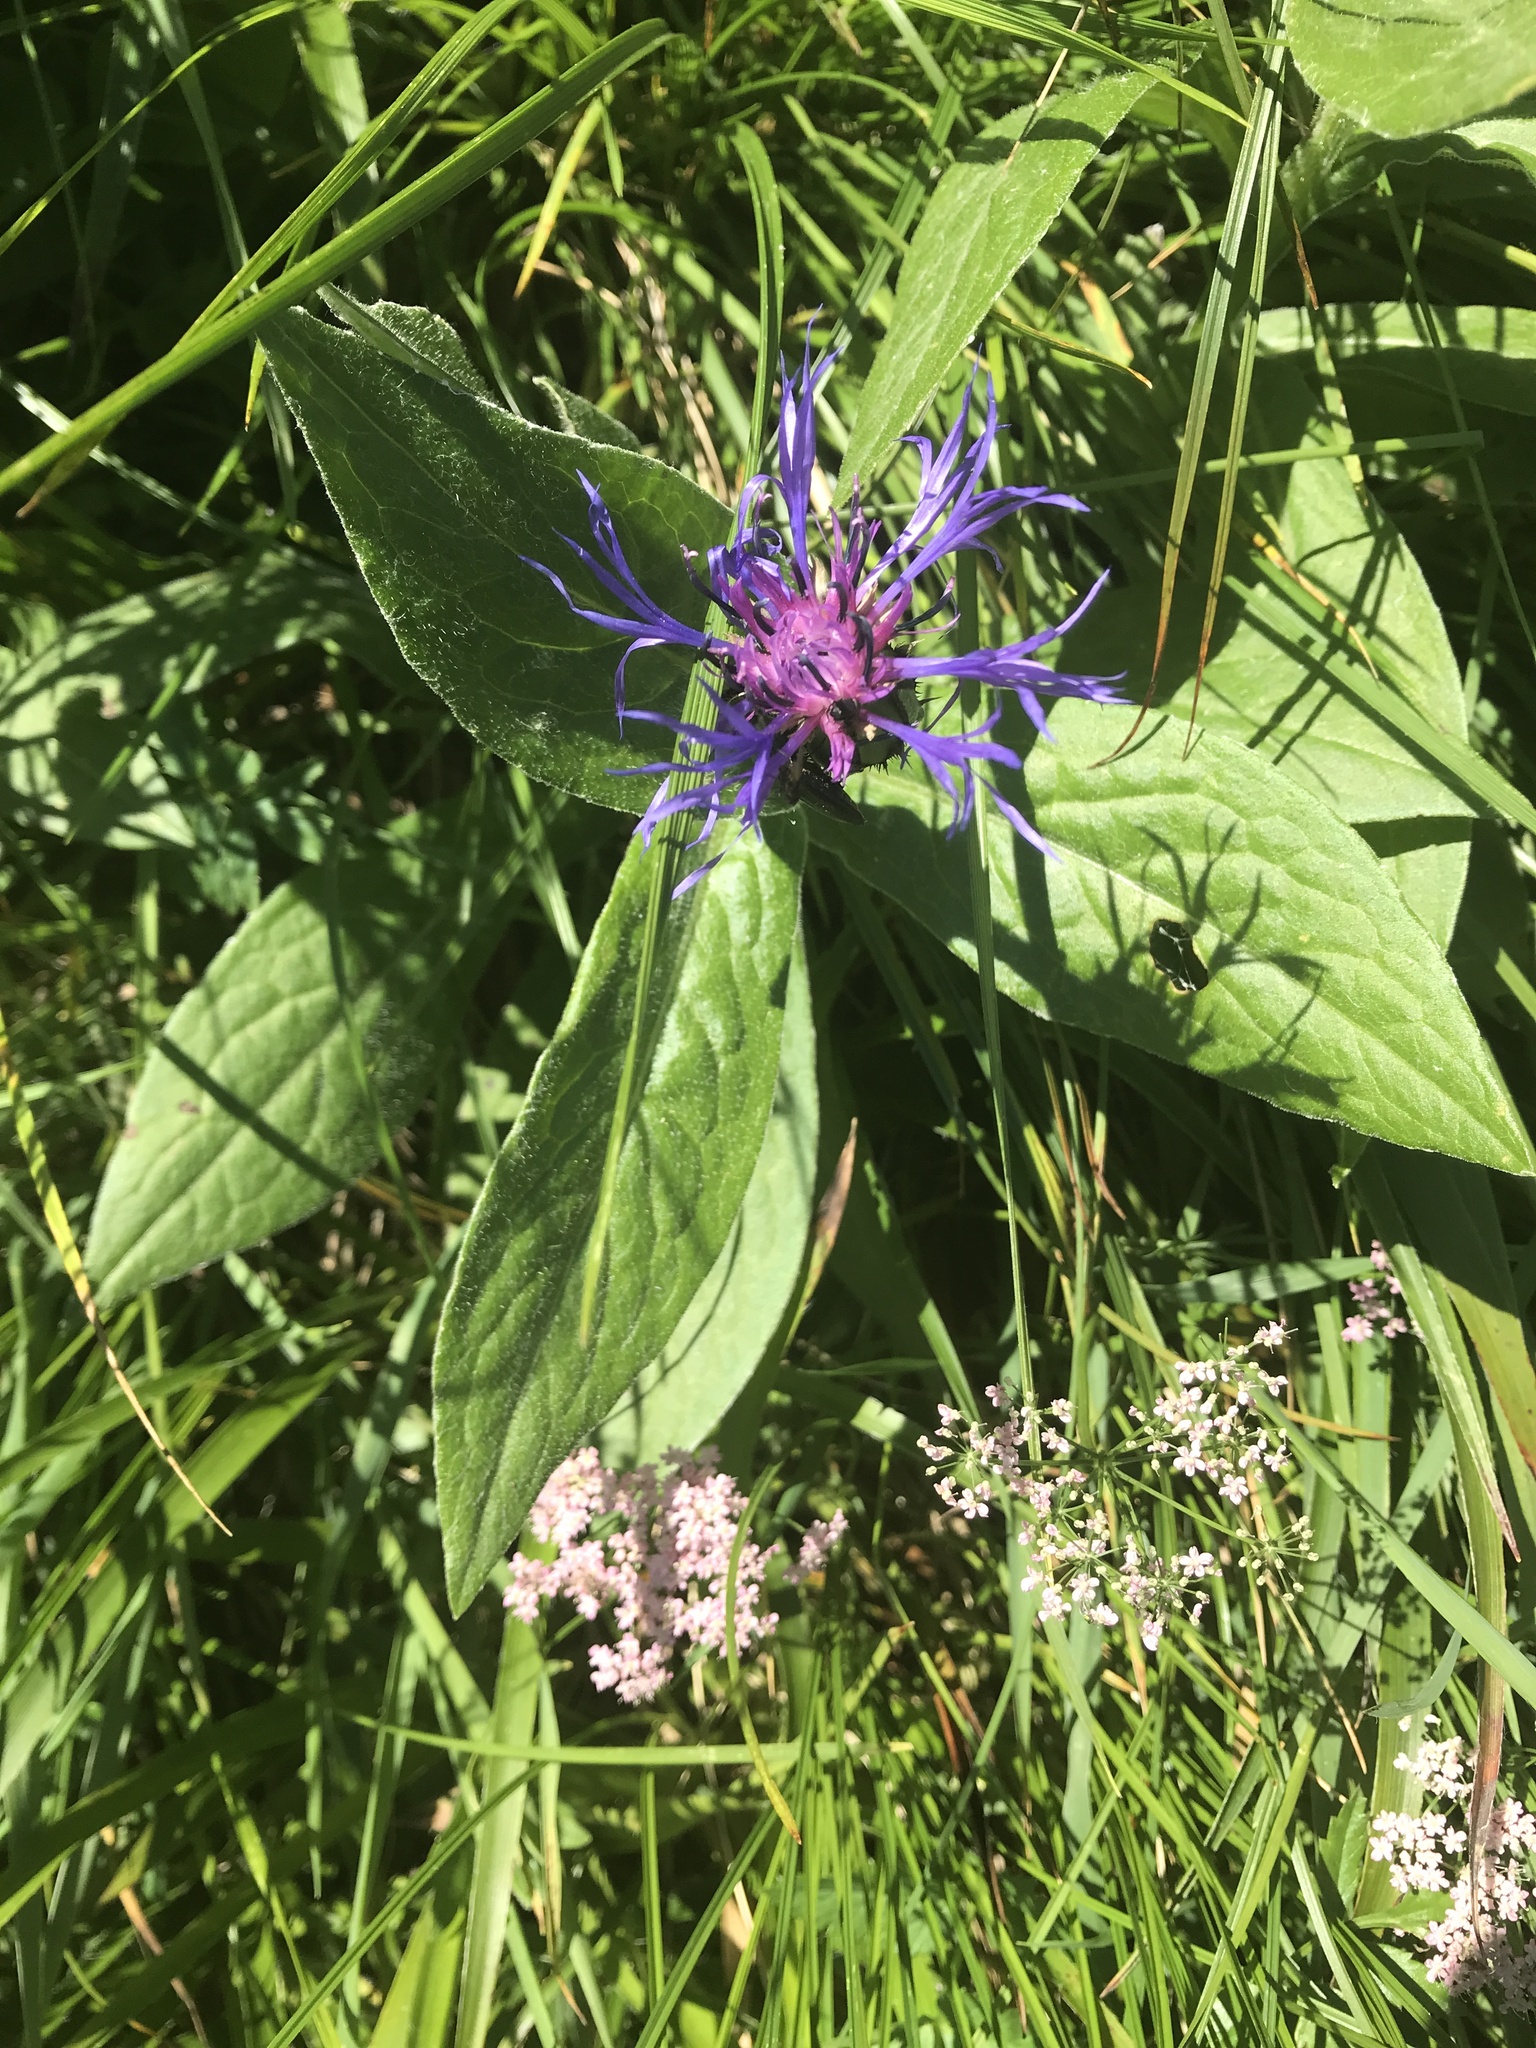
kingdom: Plantae
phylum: Tracheophyta
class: Magnoliopsida
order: Asterales
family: Asteraceae
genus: Centaurea
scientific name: Centaurea montana
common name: Perennial cornflower
